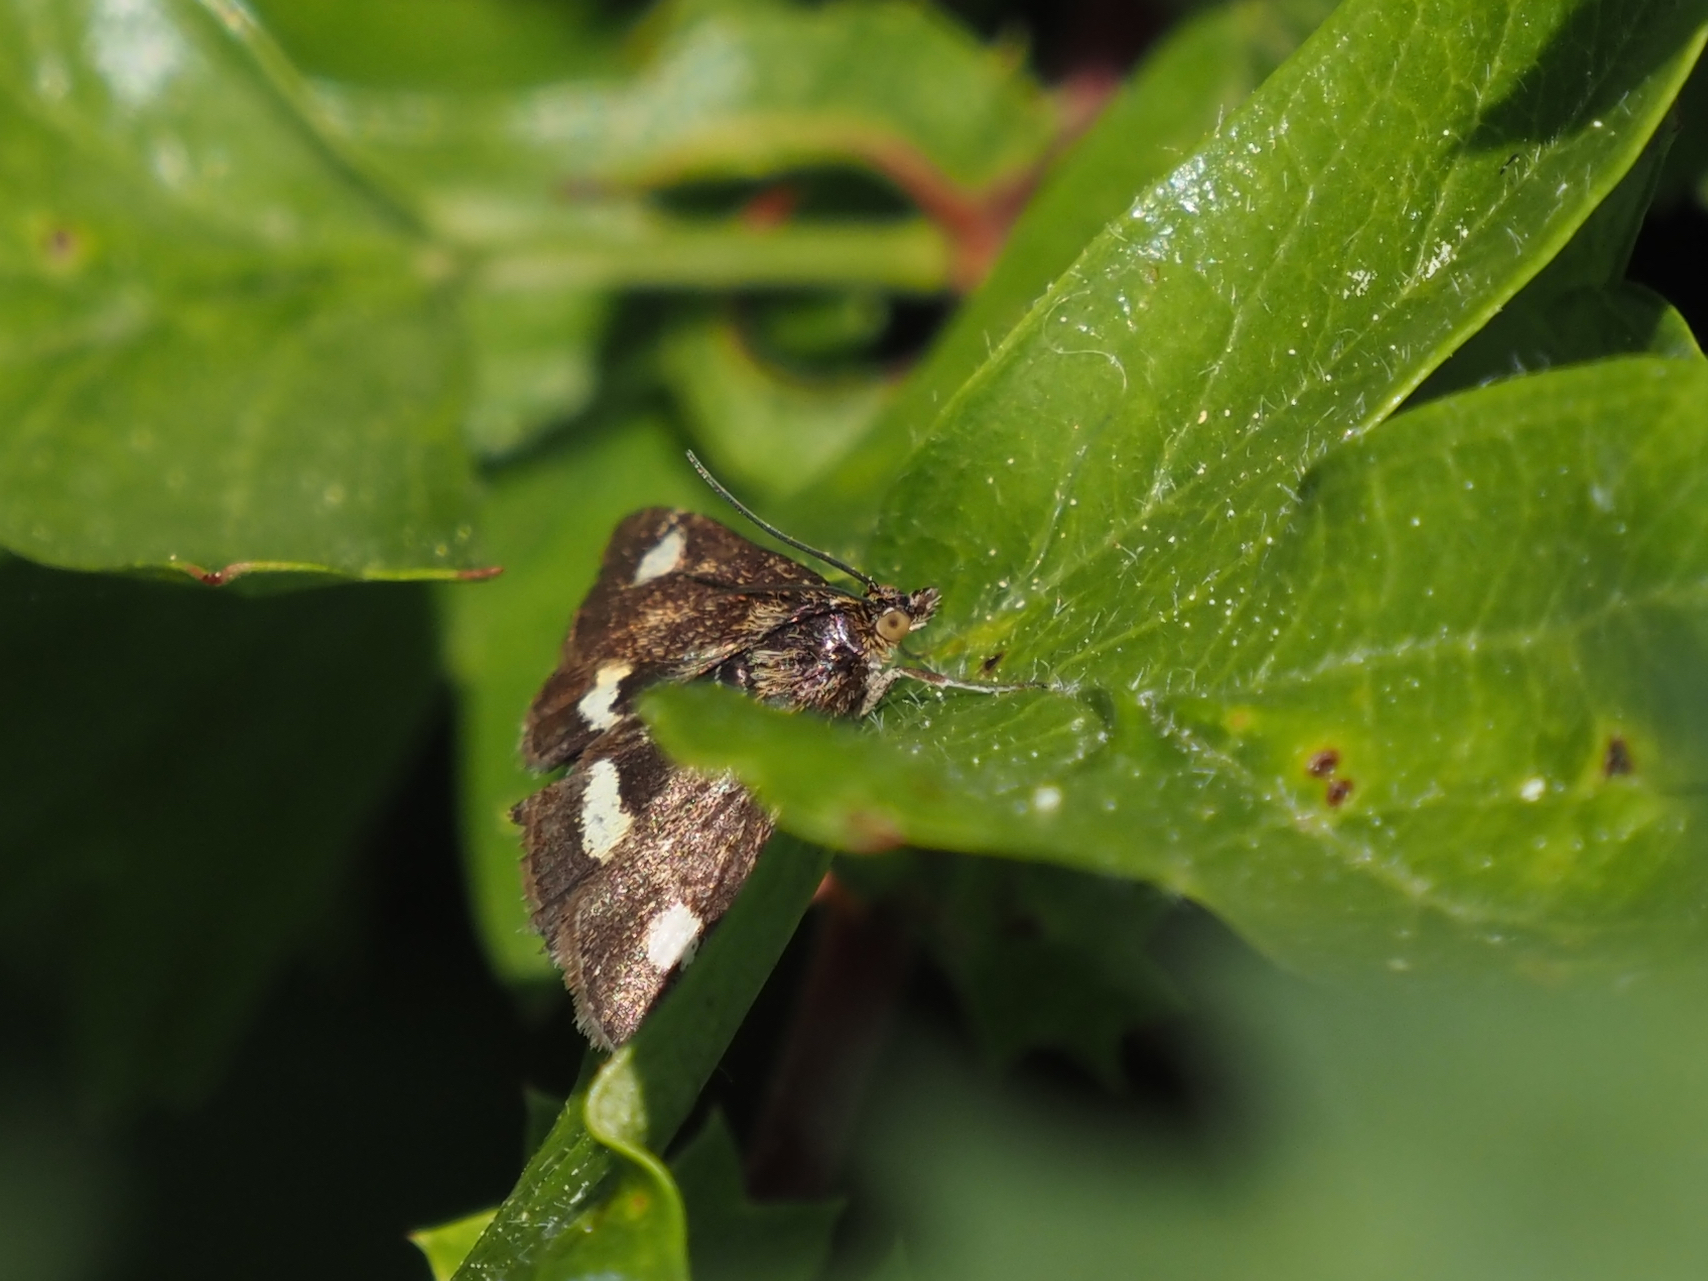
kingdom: Animalia
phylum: Arthropoda
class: Insecta
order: Lepidoptera
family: Crambidae
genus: Pyrausta
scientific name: Pyrausta aurata
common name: Small purple & gold
